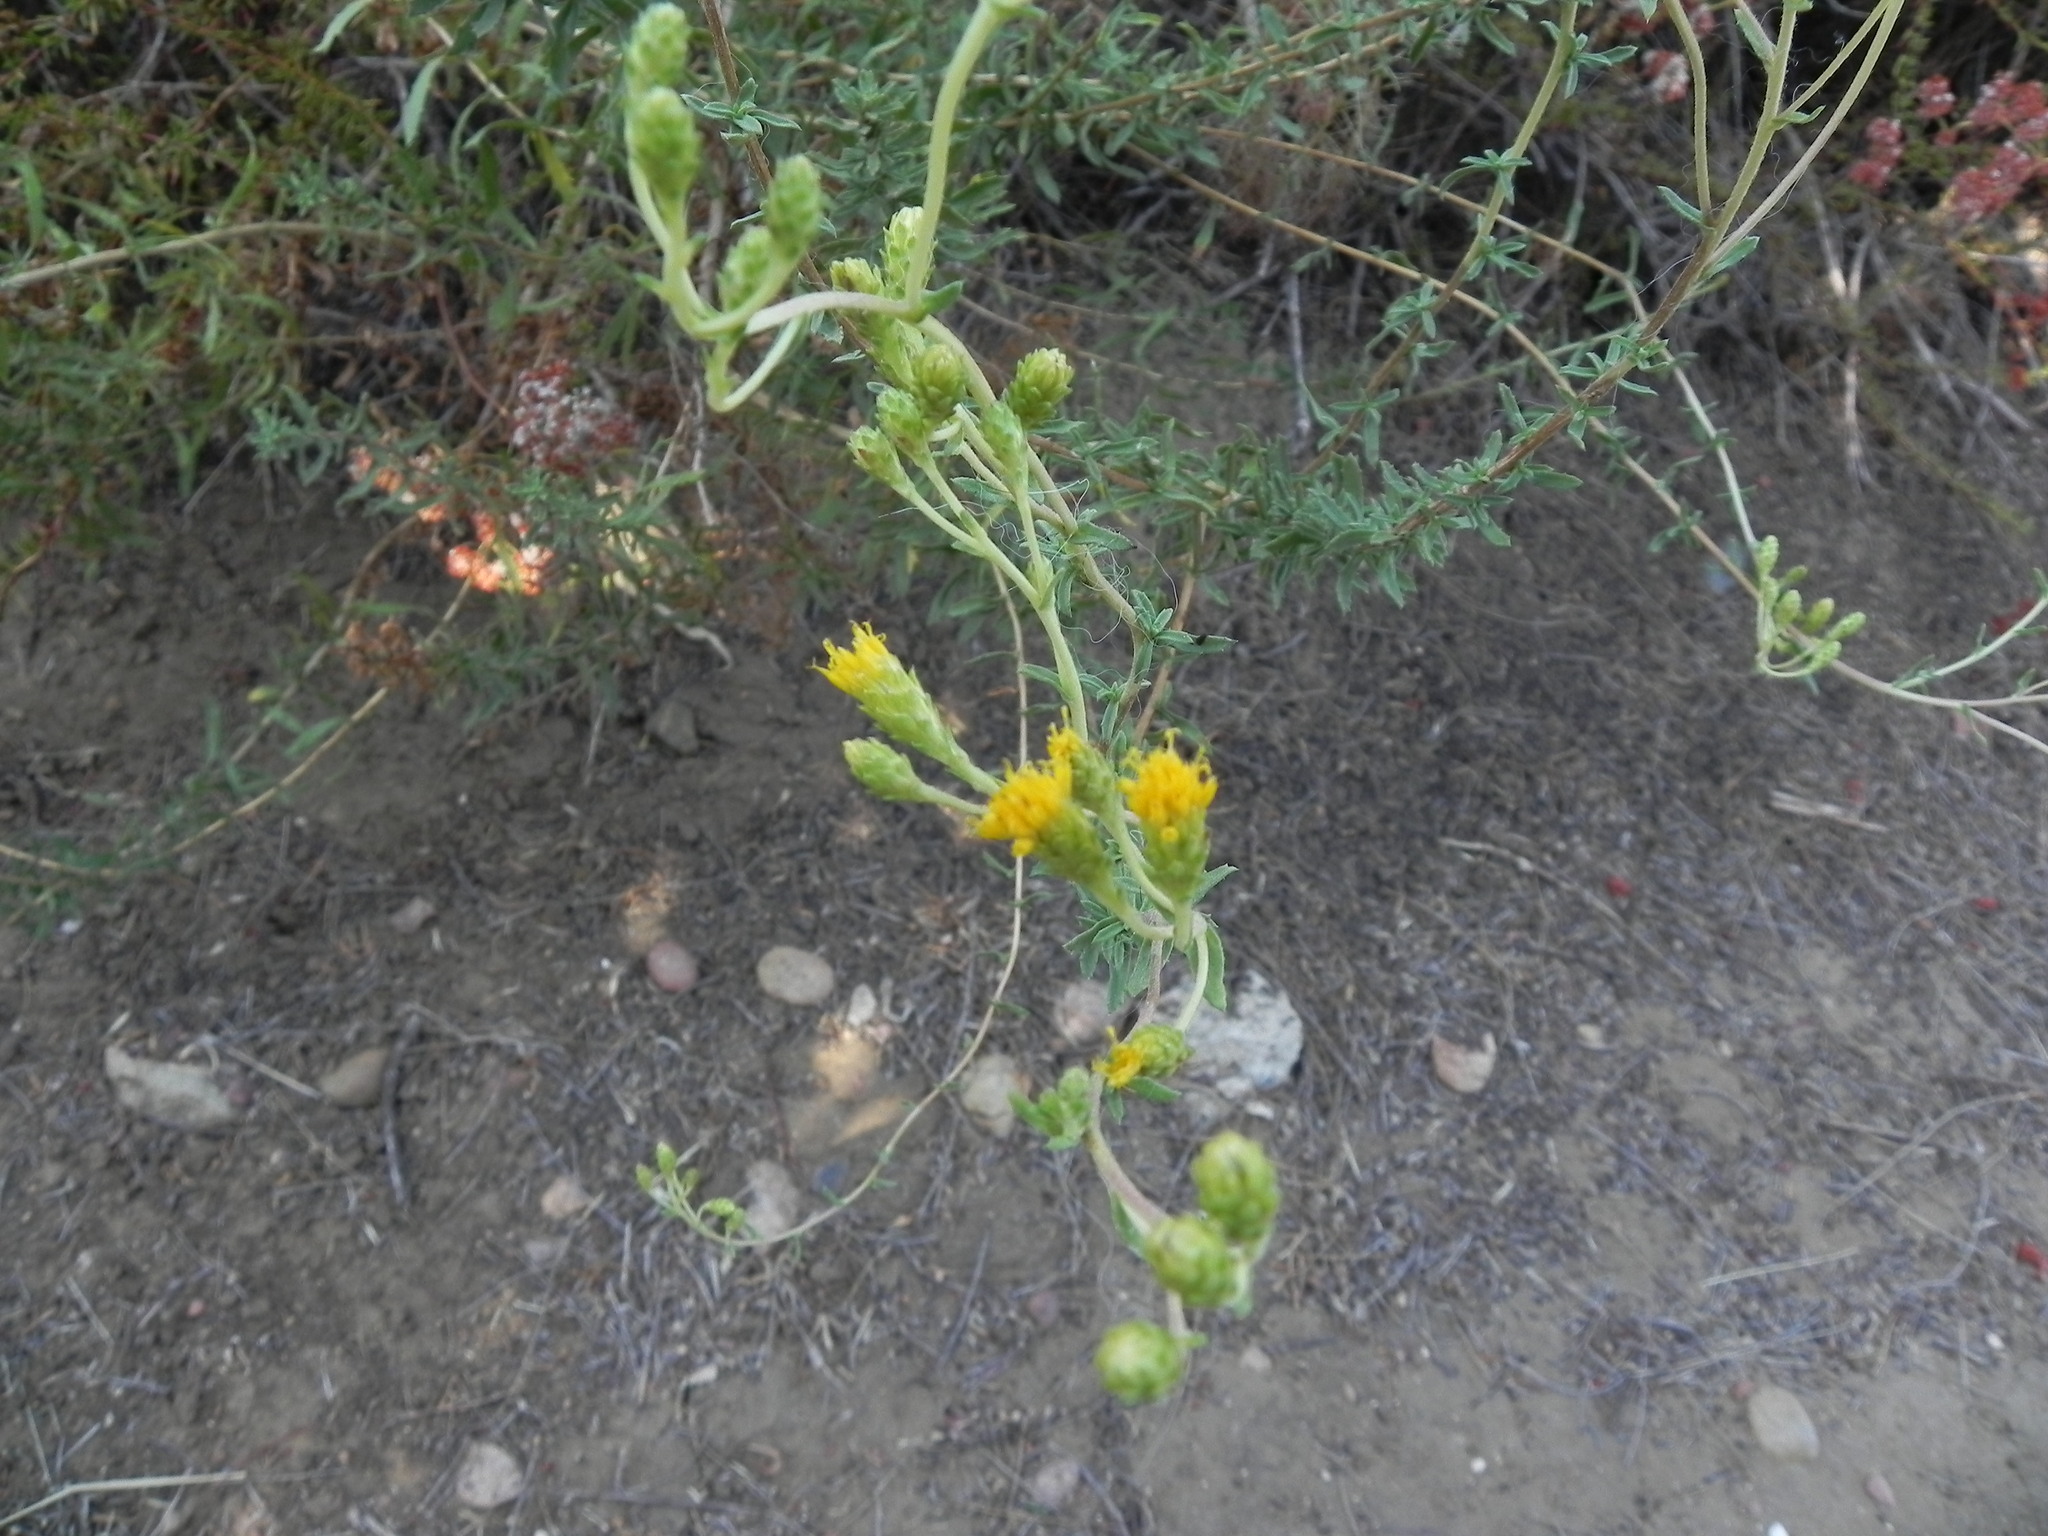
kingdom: Plantae
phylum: Tracheophyta
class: Magnoliopsida
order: Asterales
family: Asteraceae
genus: Isocoma
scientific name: Isocoma menziesii
